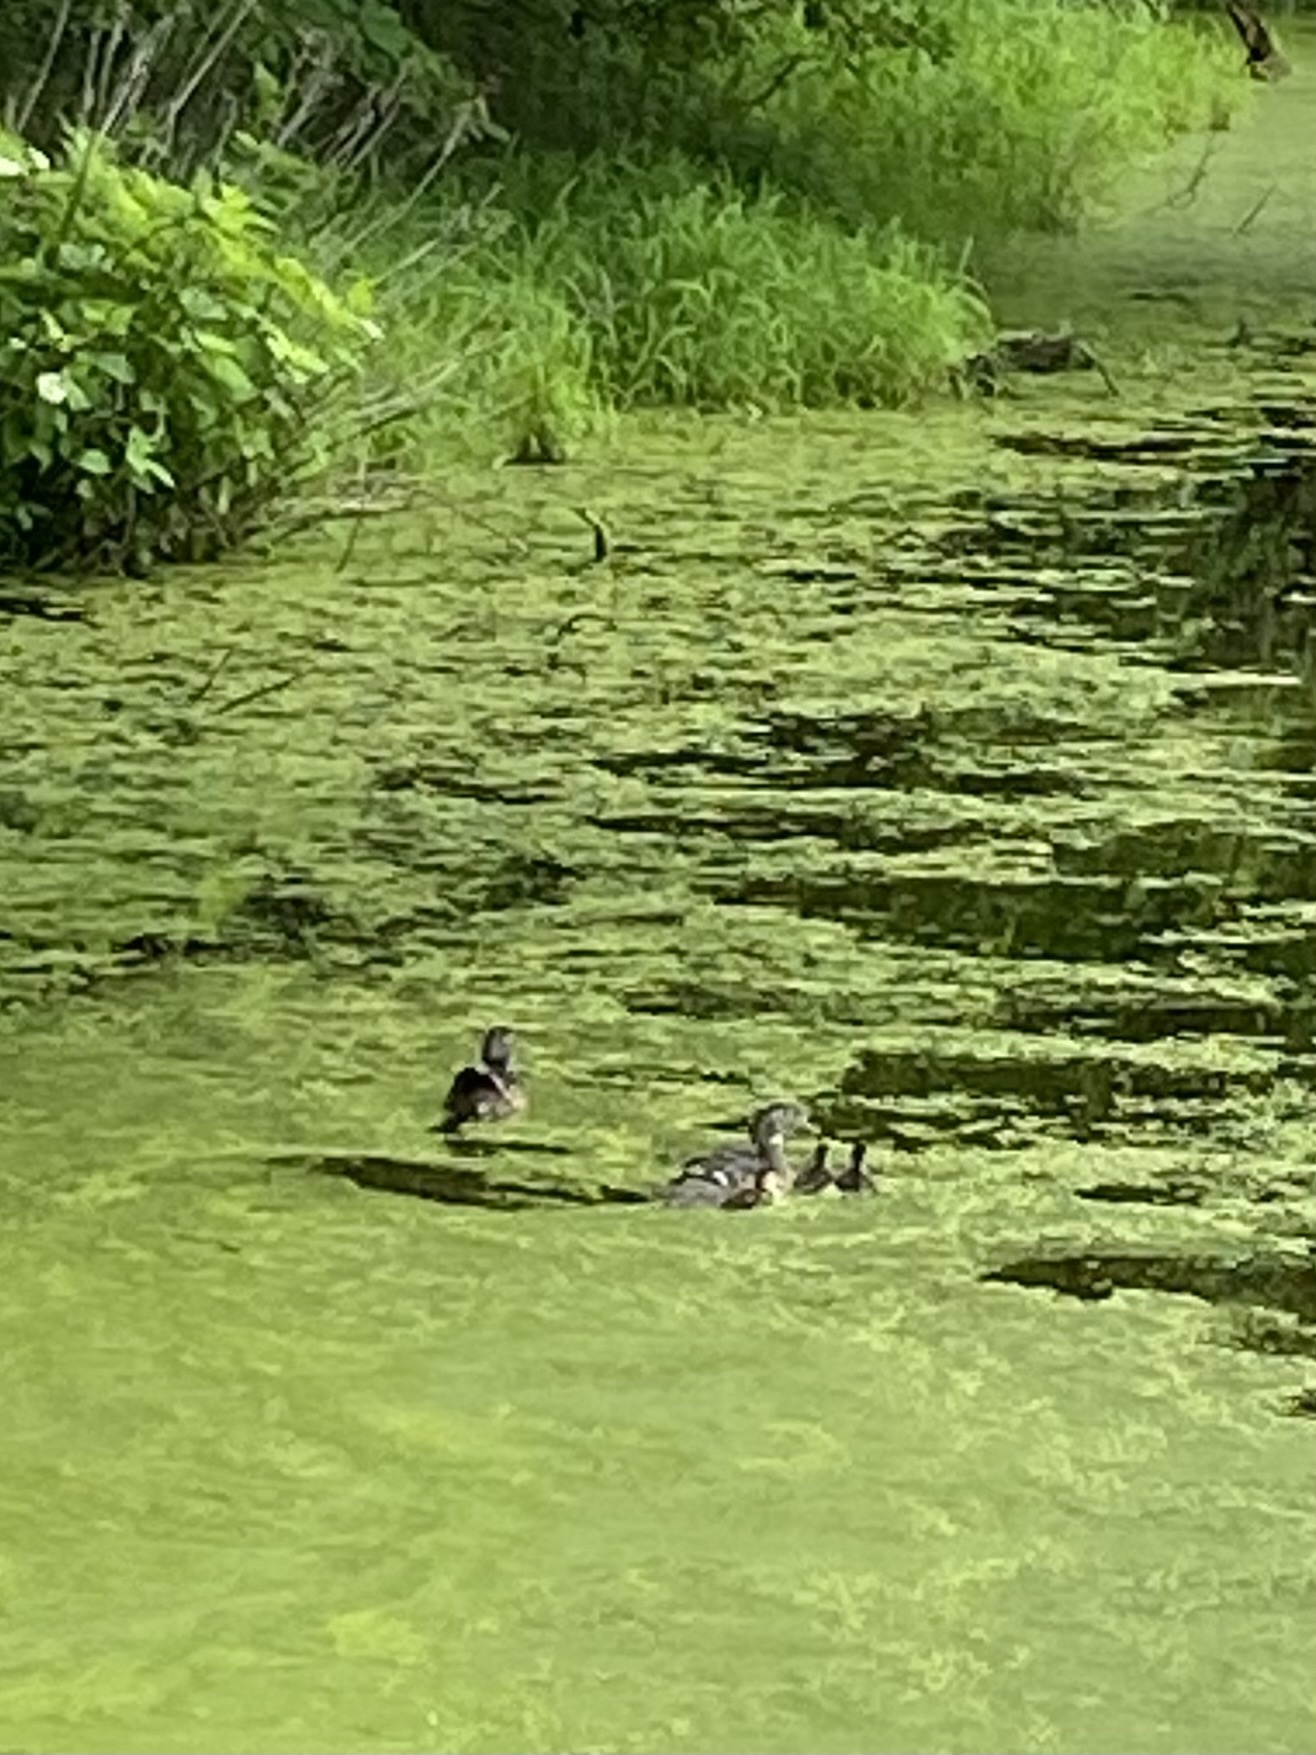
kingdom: Animalia
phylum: Chordata
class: Aves
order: Anseriformes
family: Anatidae
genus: Aix
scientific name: Aix sponsa
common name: Wood duck
